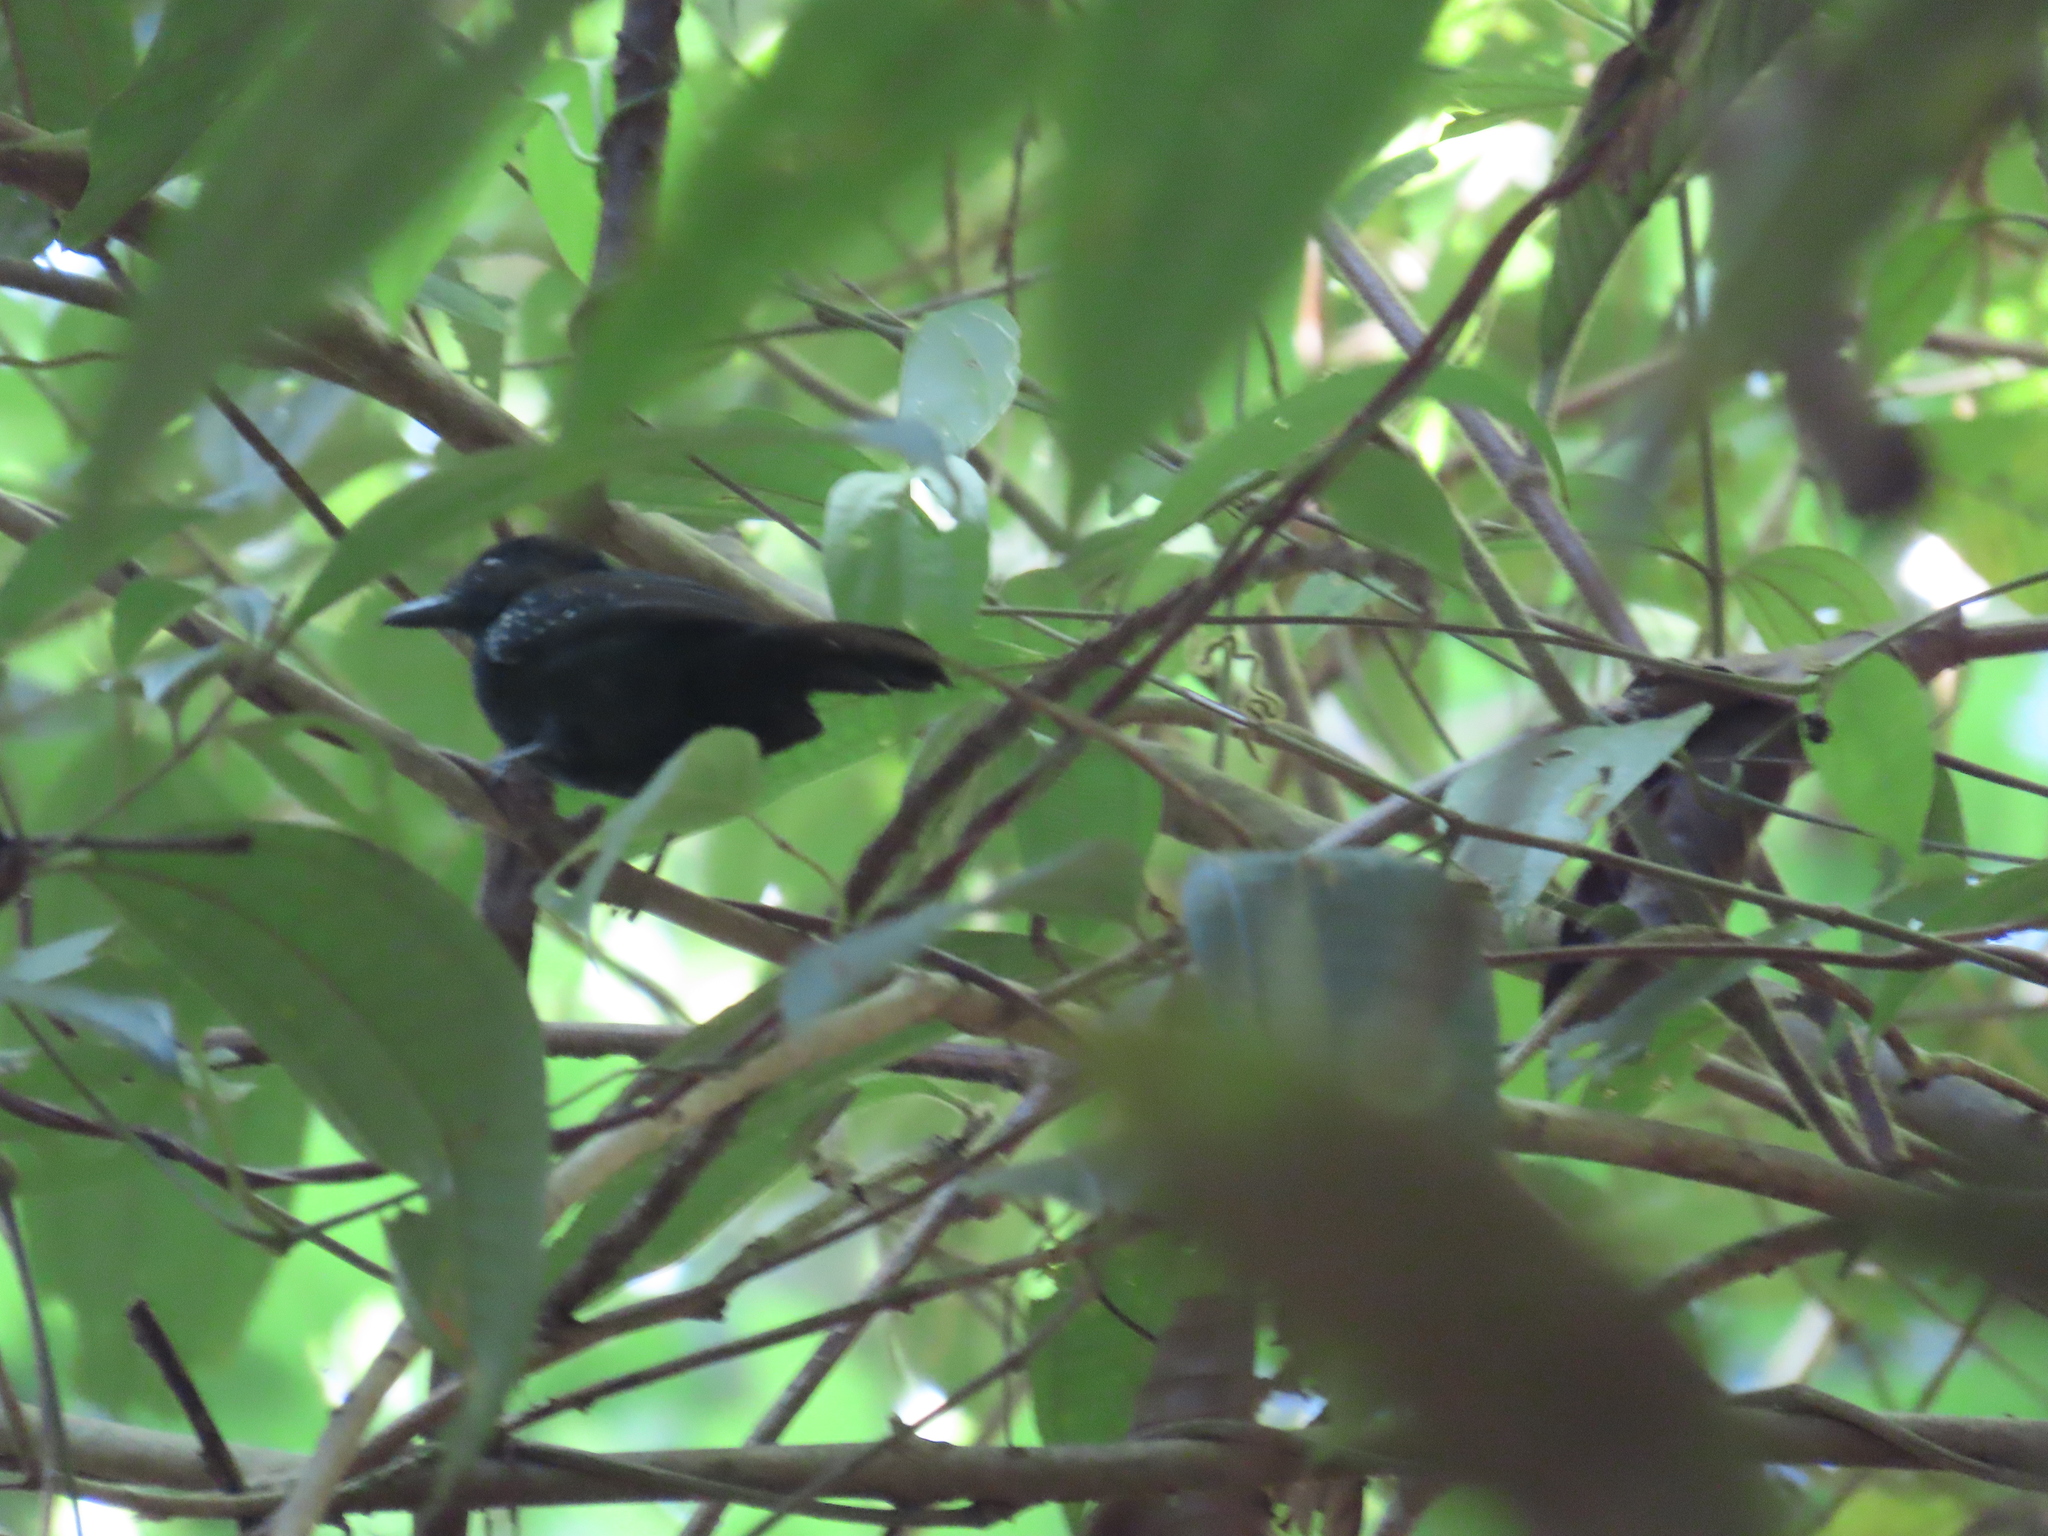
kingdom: Animalia
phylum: Chordata
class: Aves
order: Passeriformes
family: Thamnophilidae
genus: Thamnophilus
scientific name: Thamnophilus bridgesi
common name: Black-hooded antshrike
